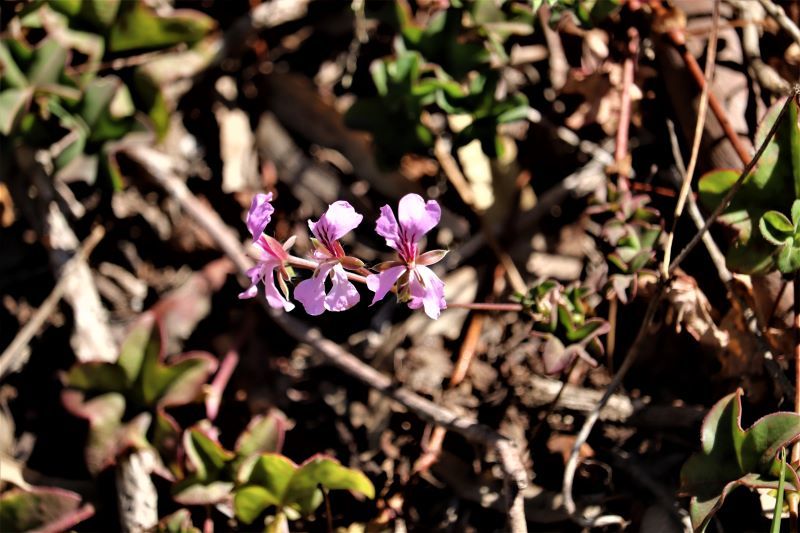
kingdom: Plantae
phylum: Tracheophyta
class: Magnoliopsida
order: Geraniales
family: Geraniaceae
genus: Pelargonium
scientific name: Pelargonium peltatum
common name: Ivyleaf geranium
